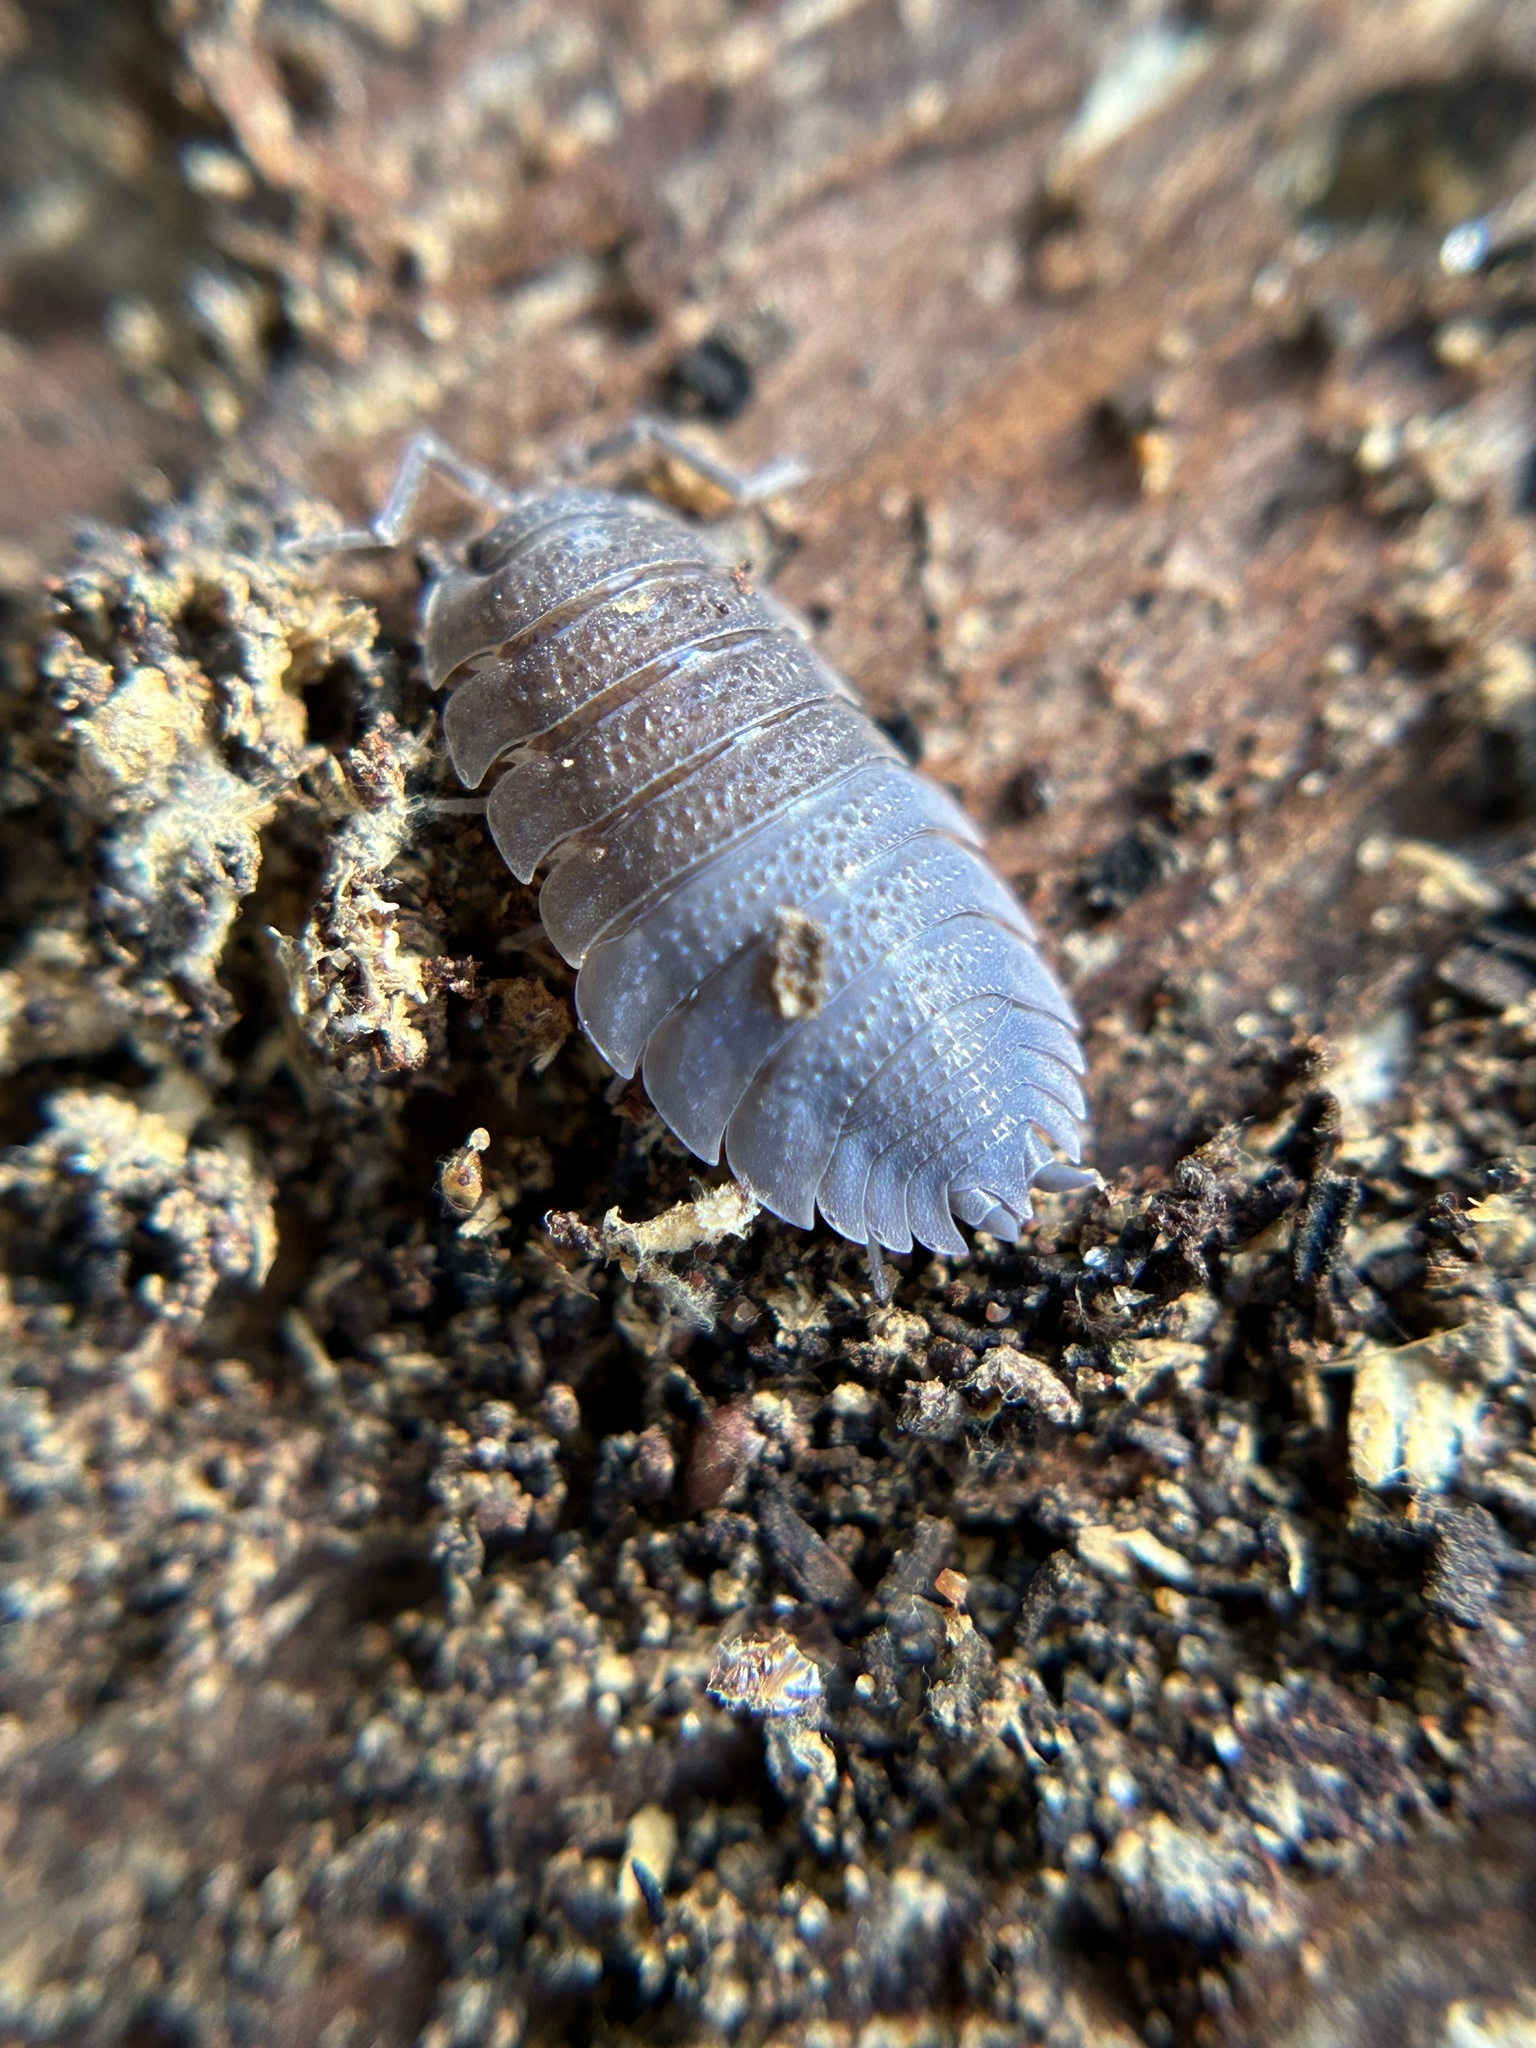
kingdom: Animalia
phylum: Arthropoda
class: Malacostraca
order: Isopoda
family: Porcellionidae
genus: Porcellio
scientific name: Porcellio scaber
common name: Common rough woodlouse
